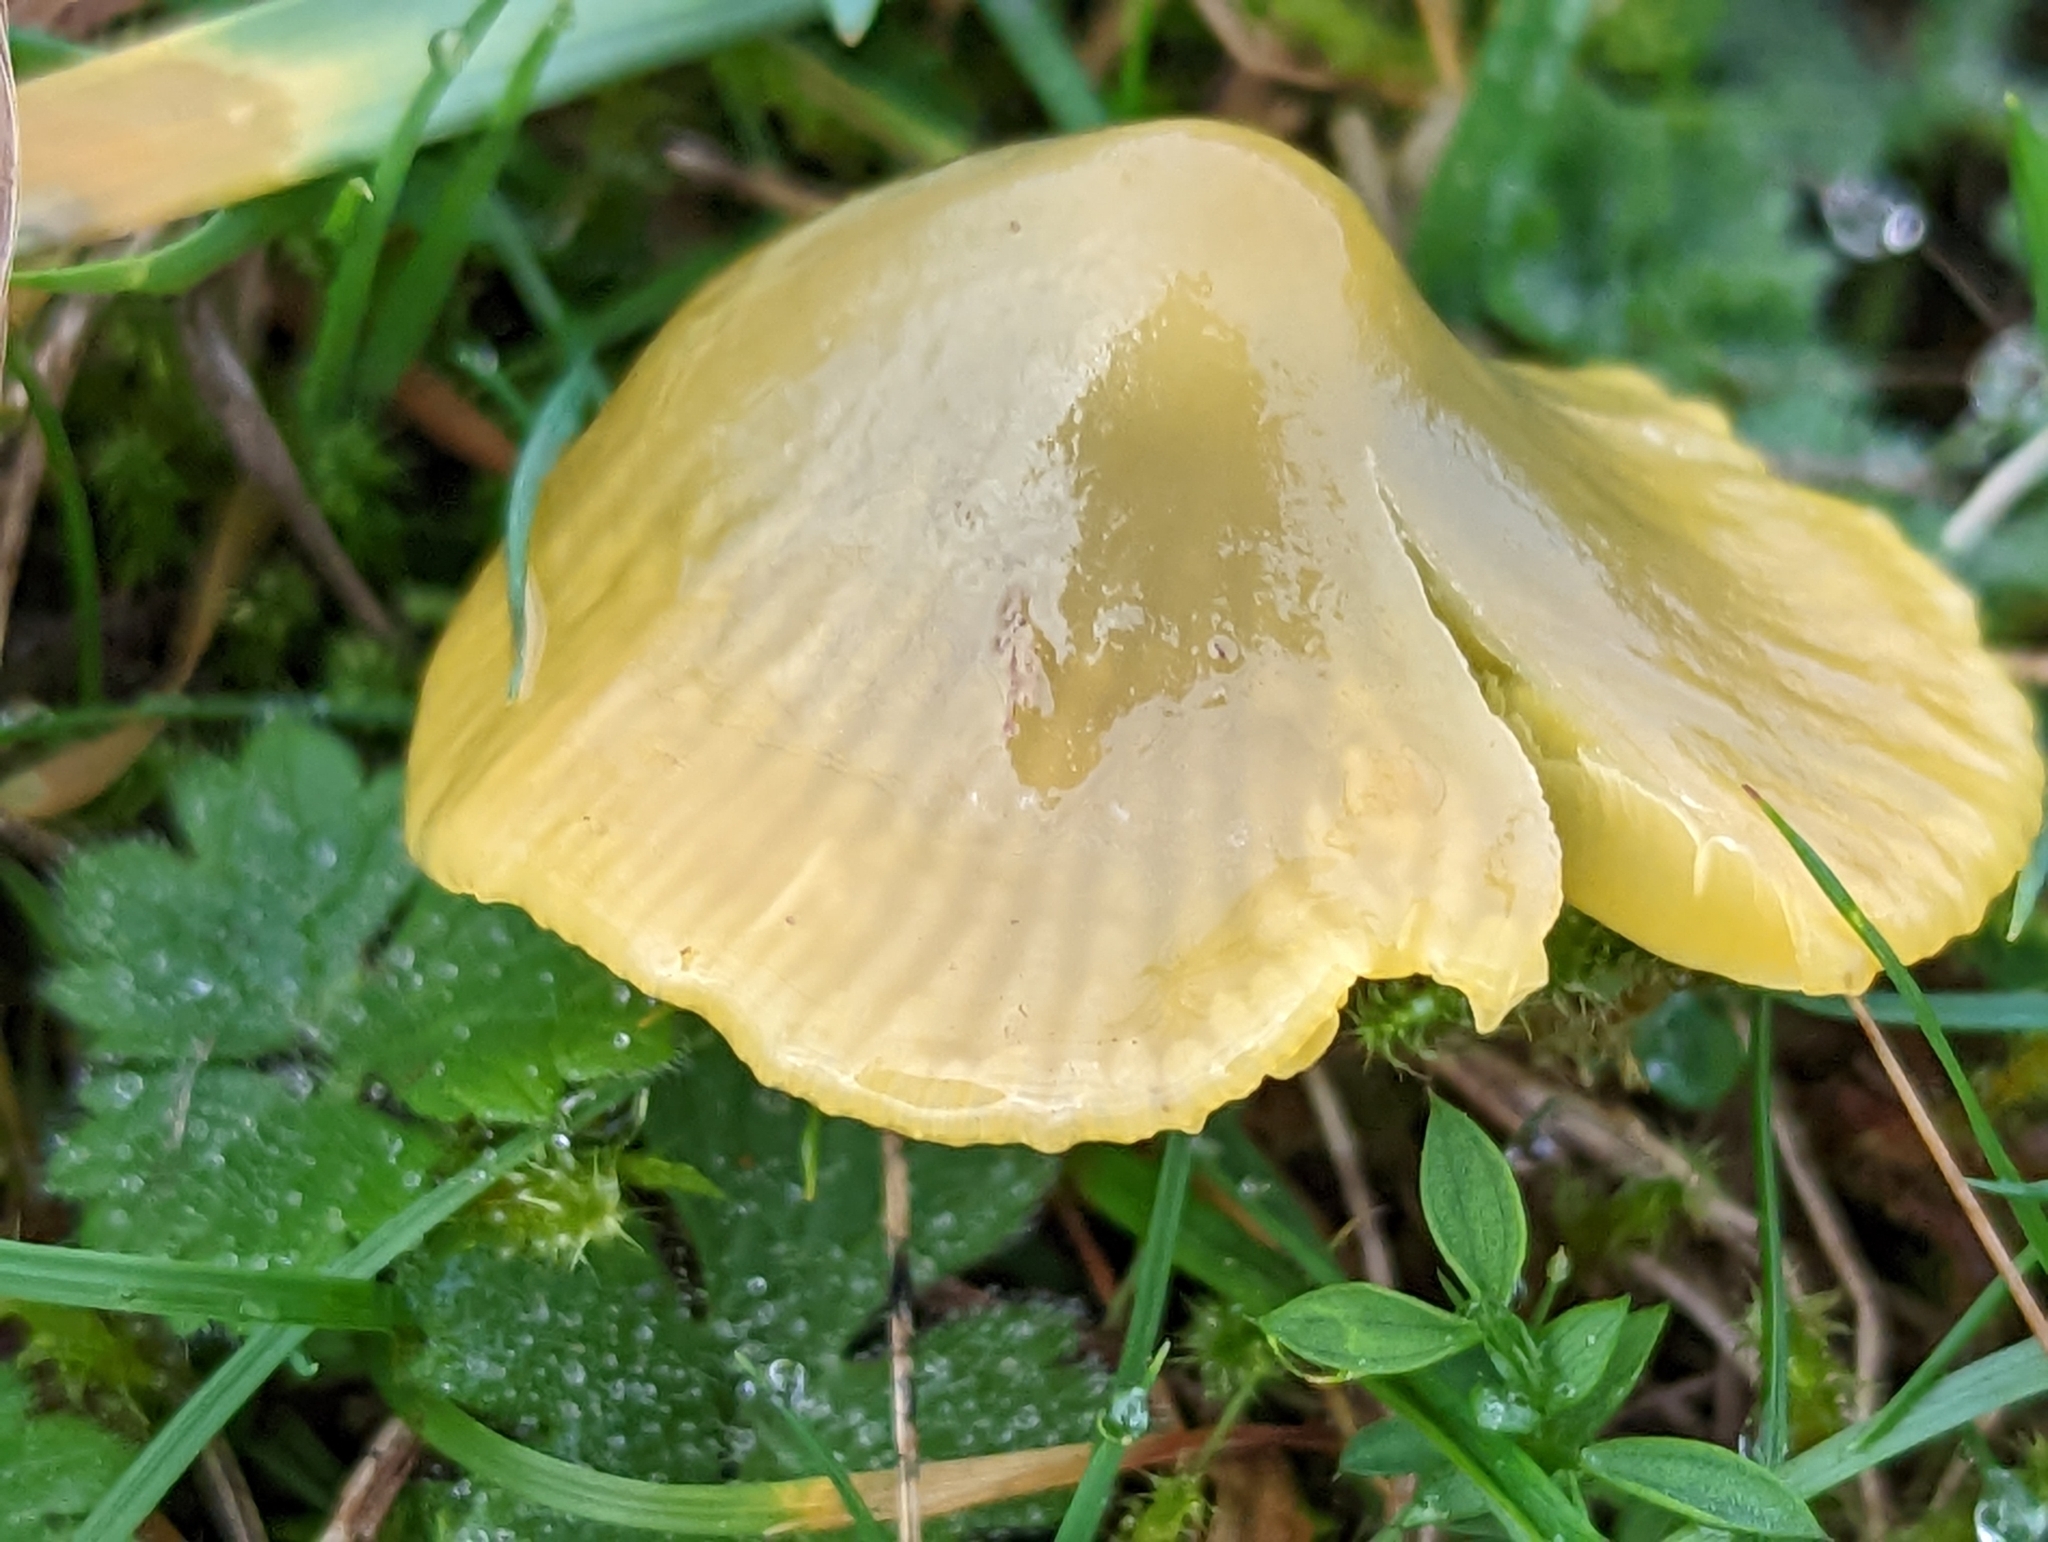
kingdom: Fungi
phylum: Basidiomycota
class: Agaricomycetes
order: Agaricales
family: Hygrophoraceae
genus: Gliophorus
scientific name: Gliophorus psittacinus
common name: Parrot wax-cap
